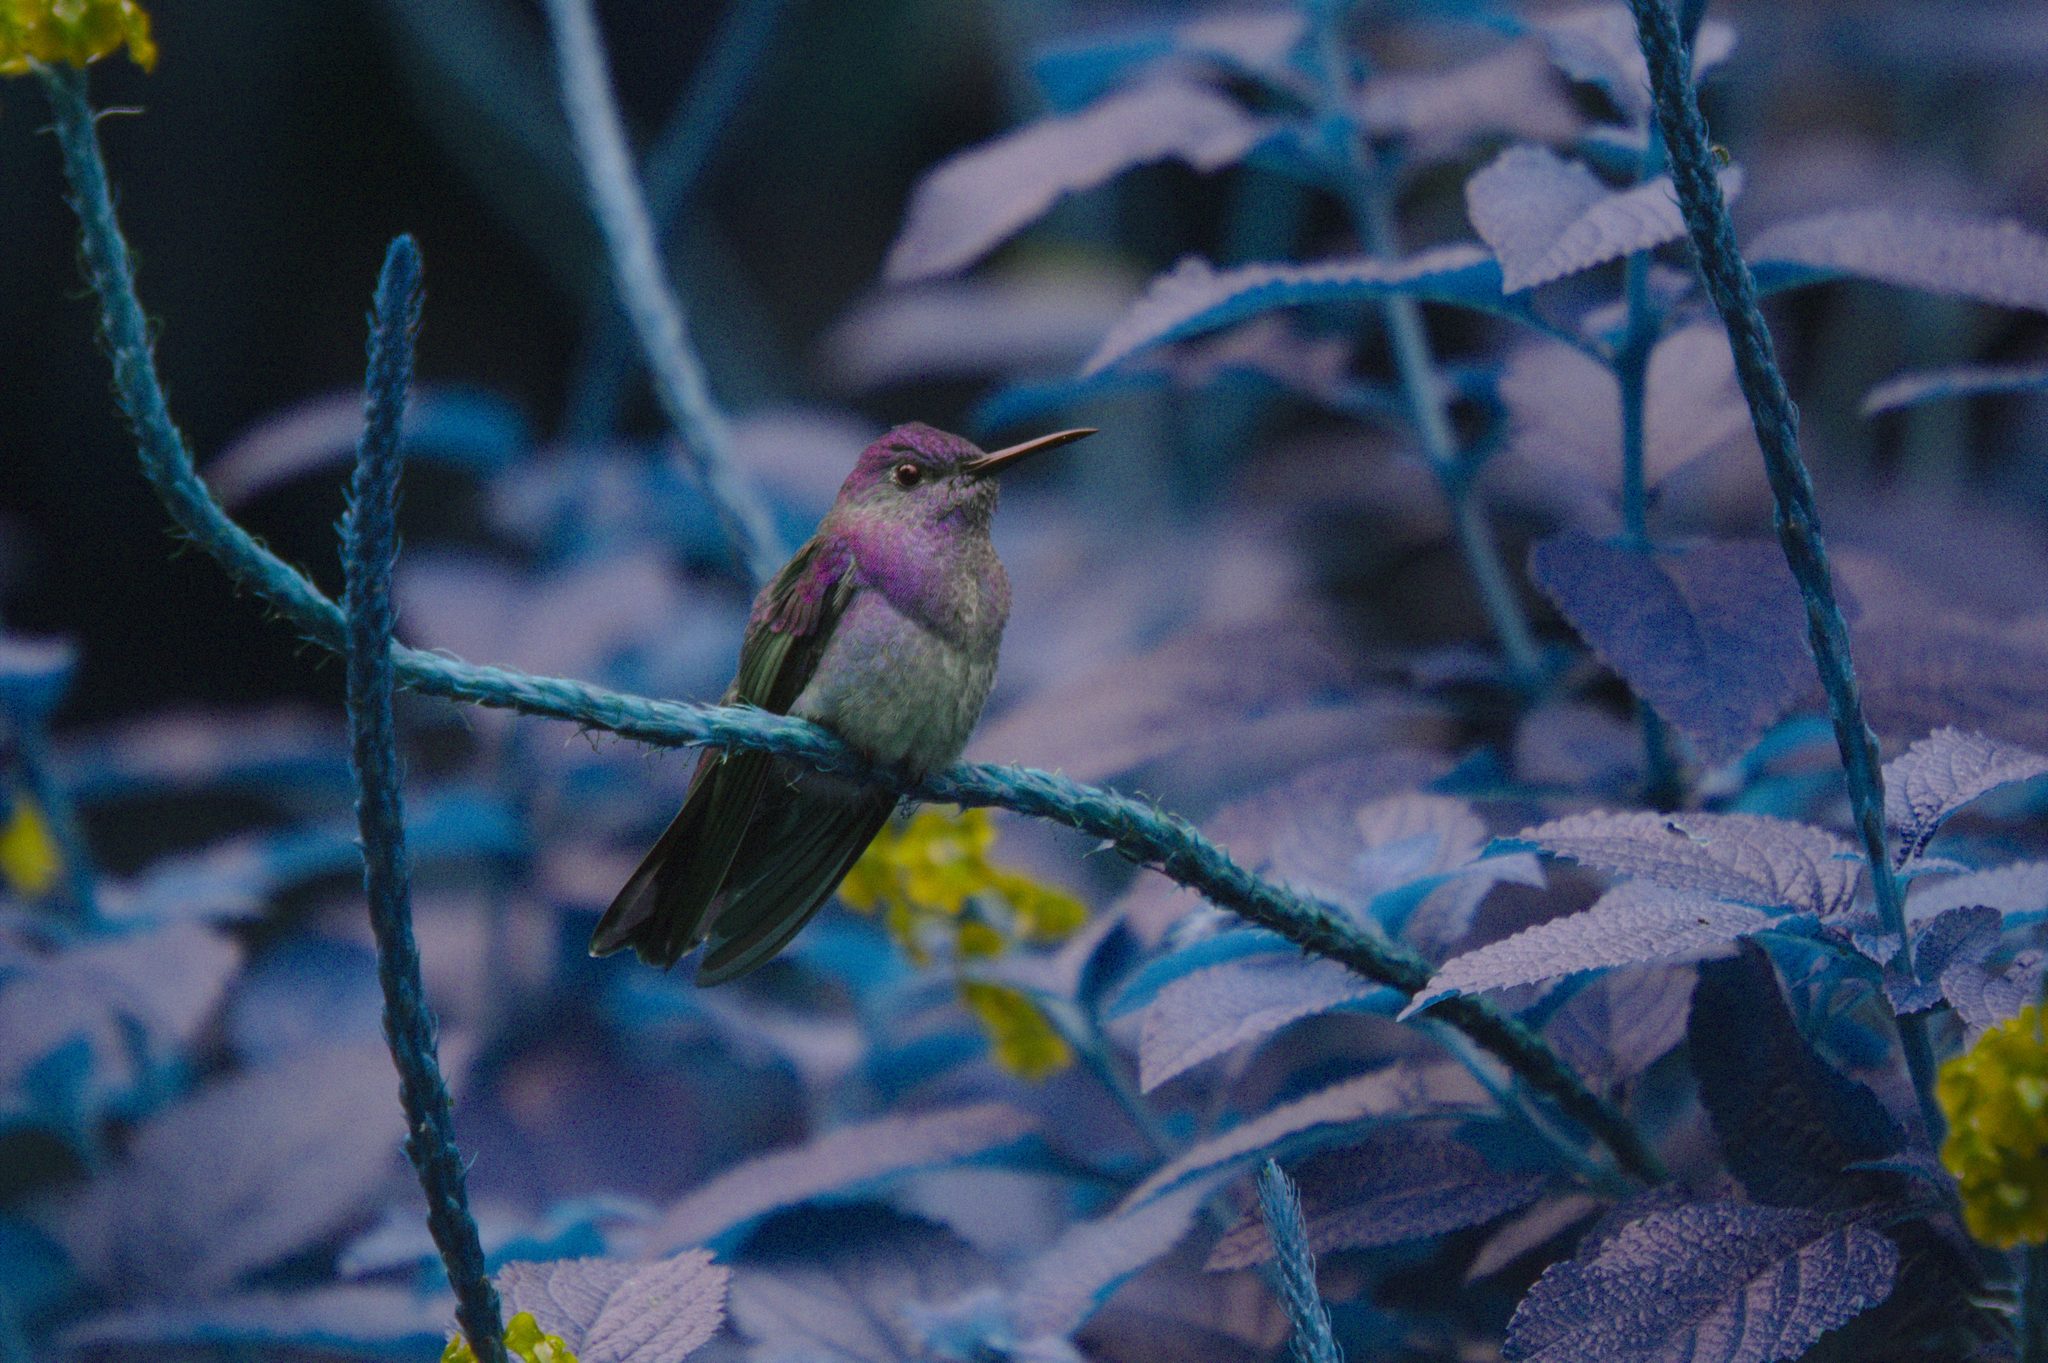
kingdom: Animalia
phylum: Chordata
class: Aves
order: Apodiformes
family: Trochilidae
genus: Phaeochroa
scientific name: Phaeochroa cuvierii
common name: Scaly-breasted hummingbird
